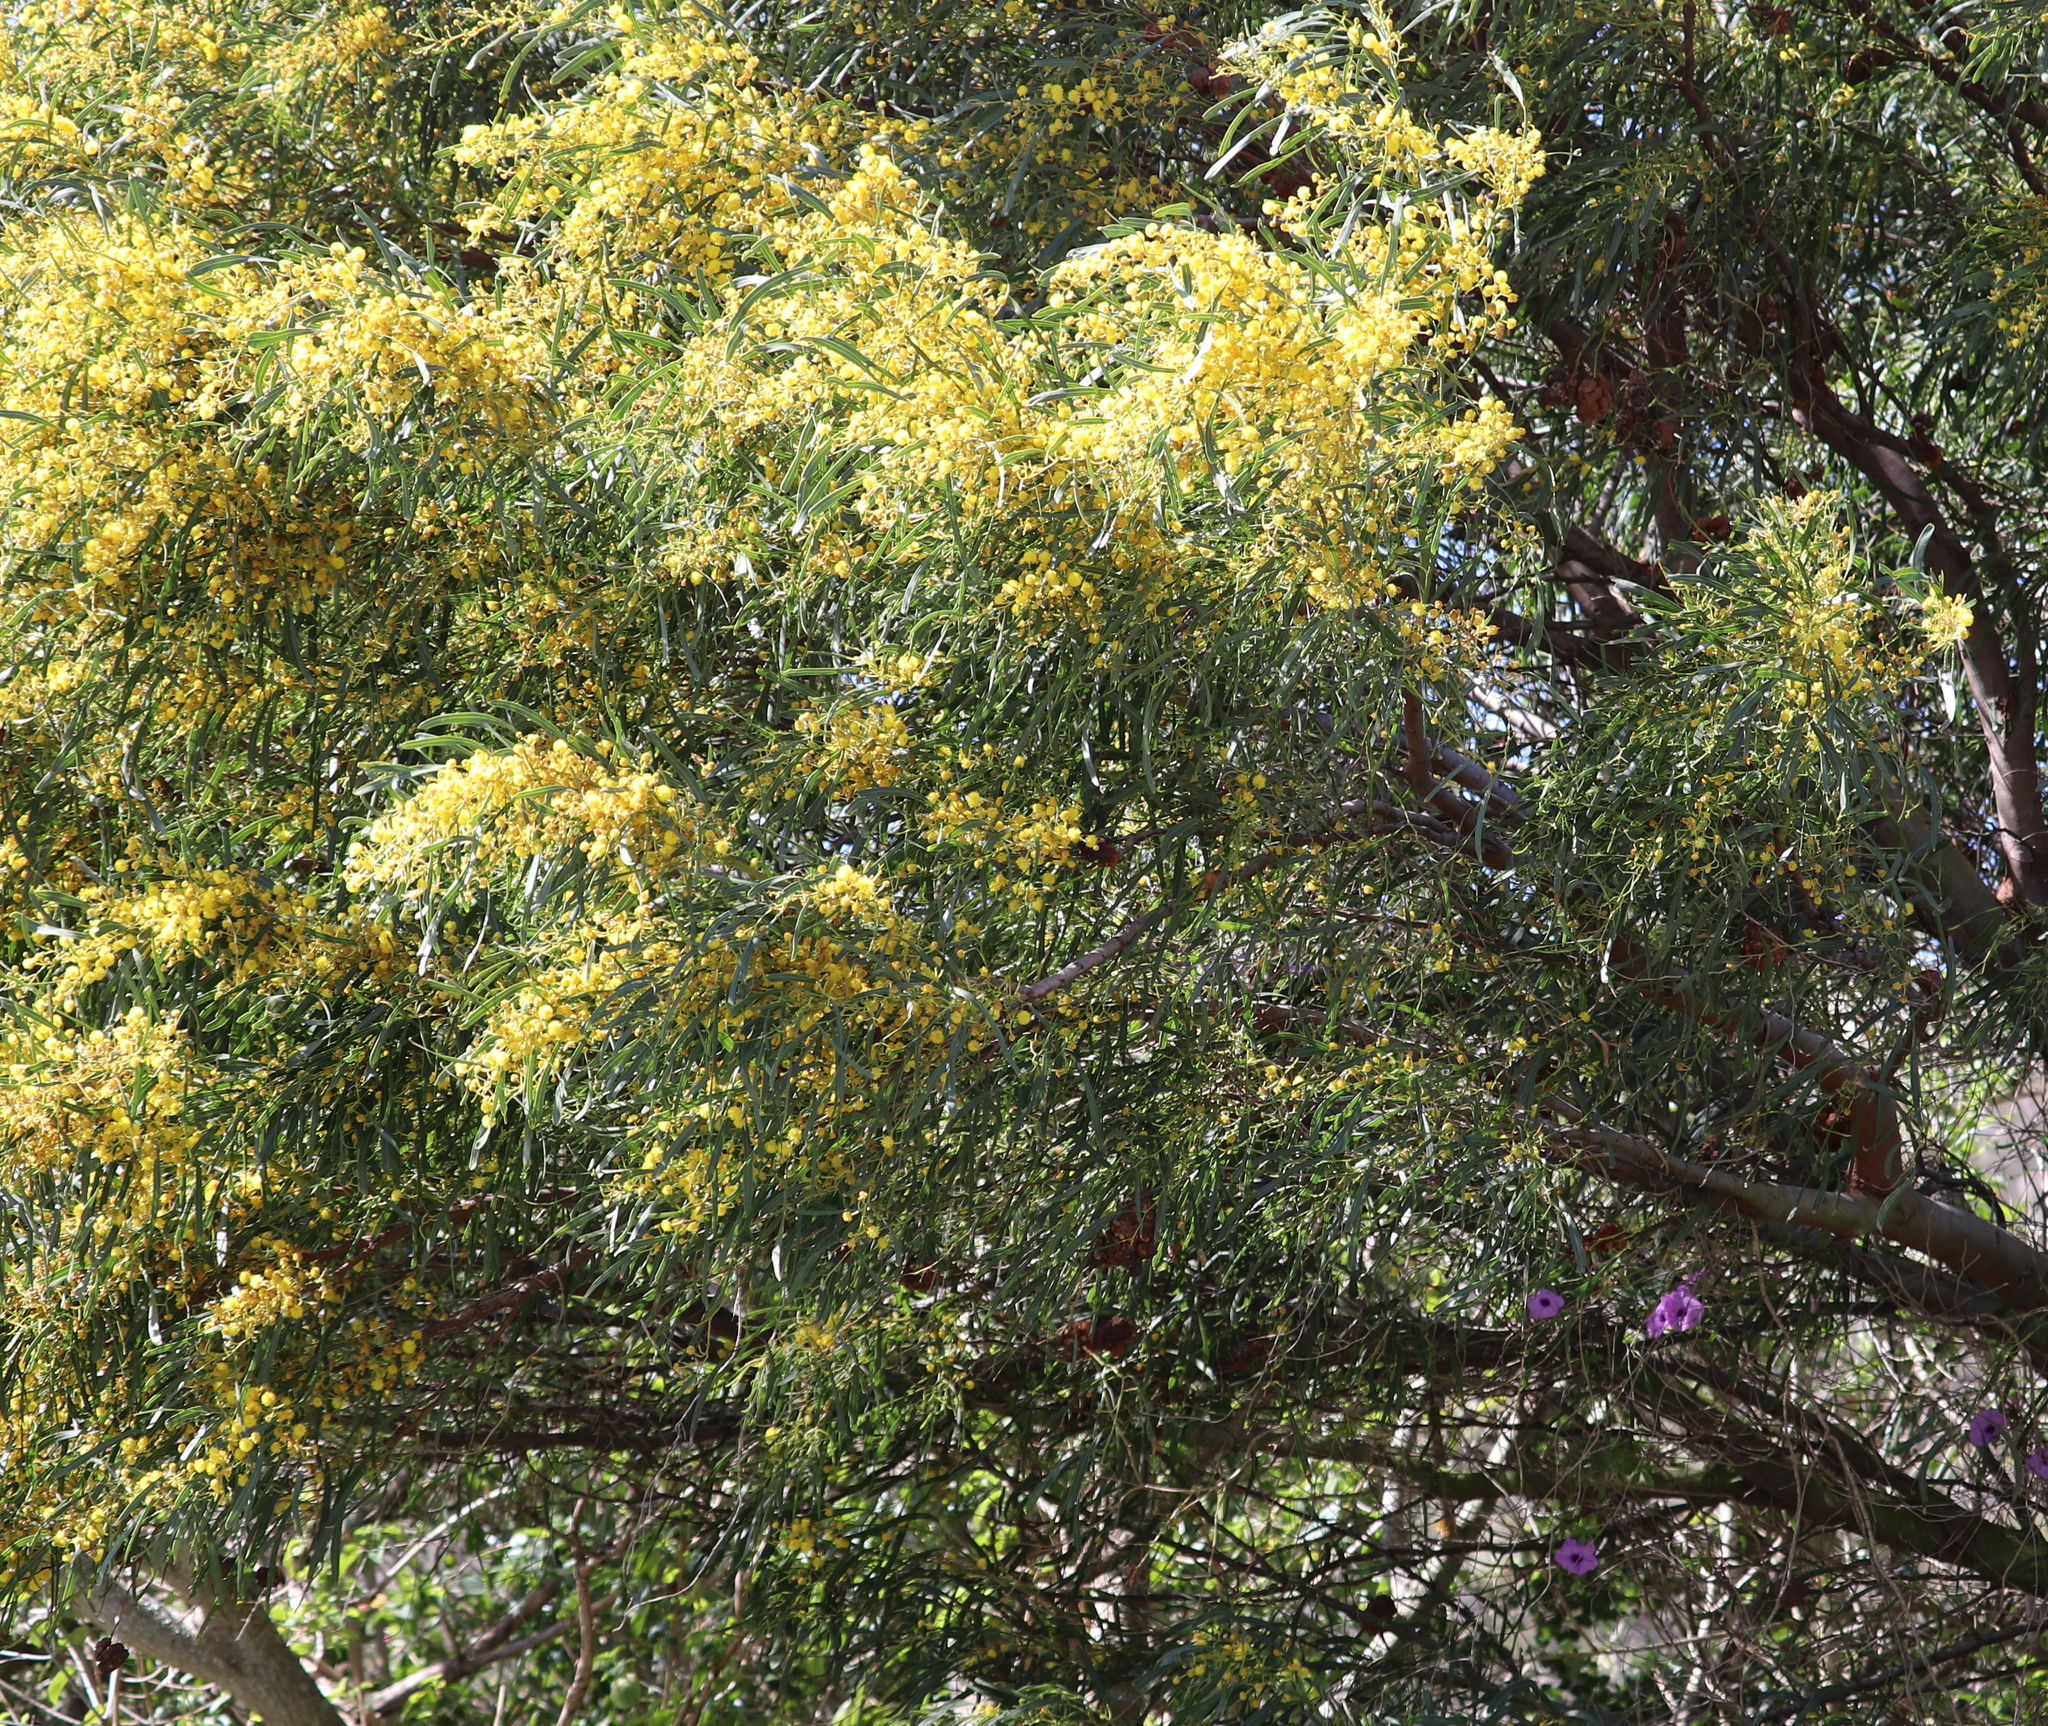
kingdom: Plantae
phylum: Tracheophyta
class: Magnoliopsida
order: Fabales
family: Fabaceae
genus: Acacia
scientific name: Acacia saligna
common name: Orange wattle
